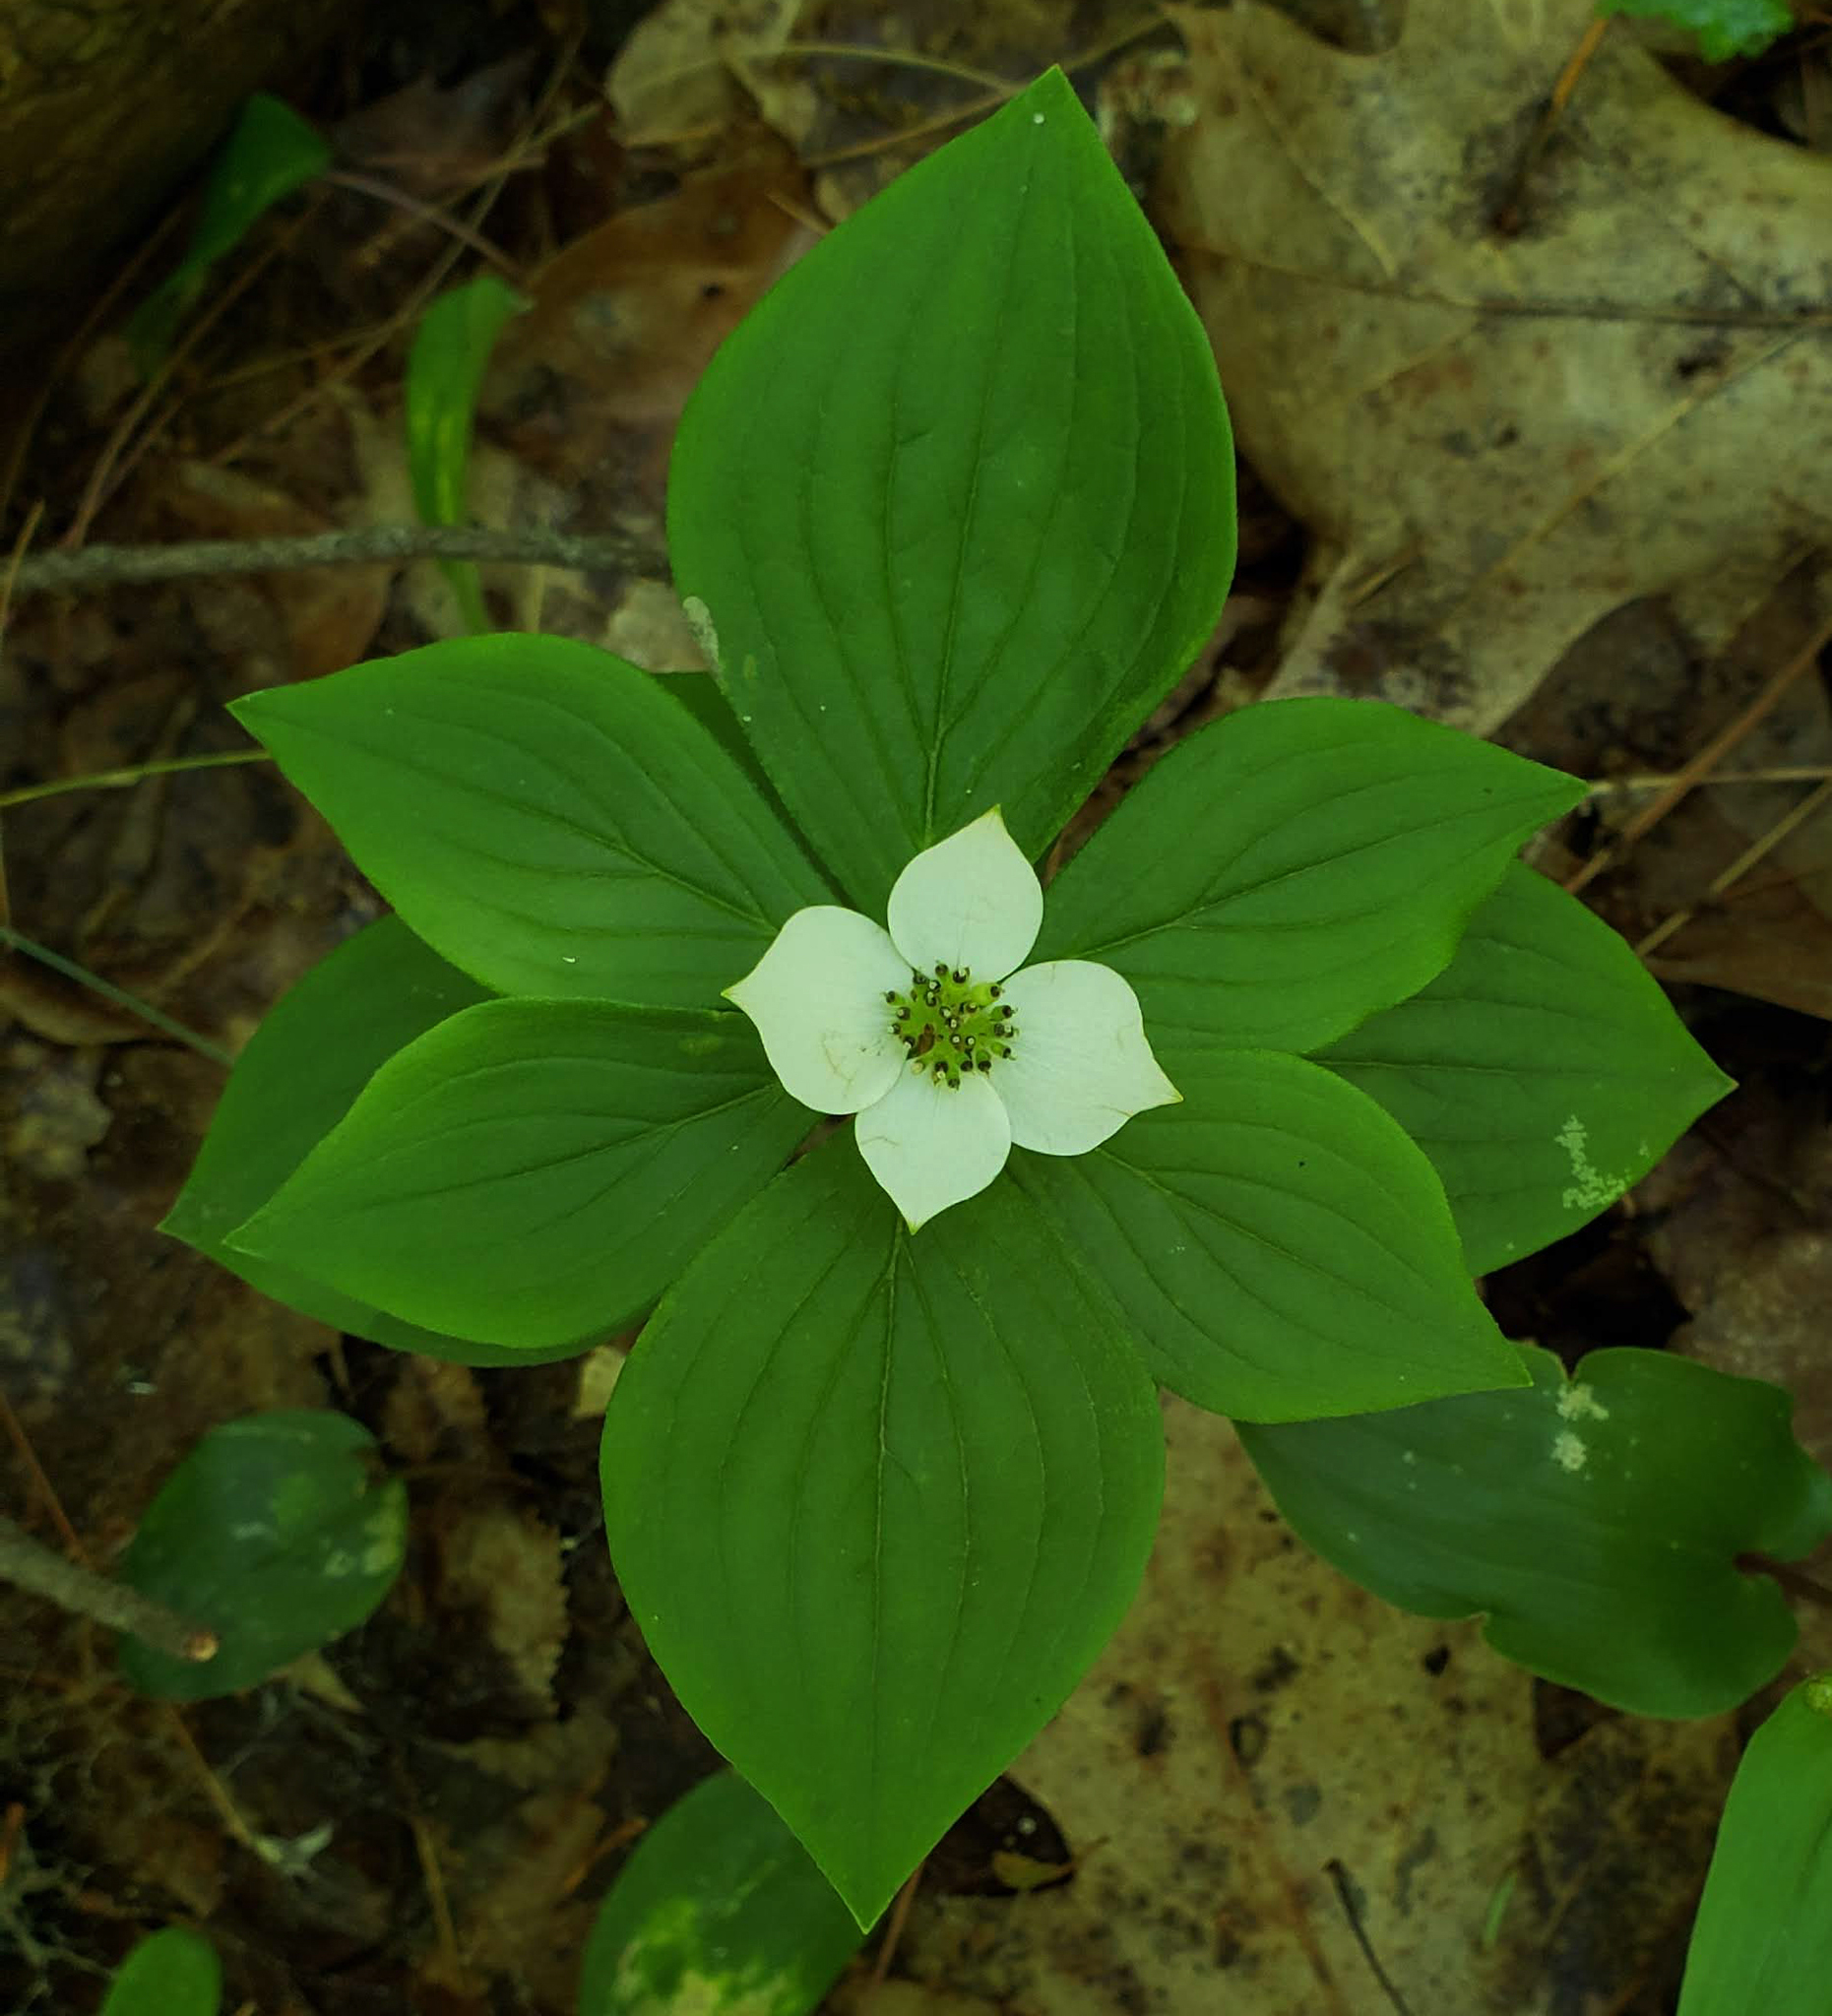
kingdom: Plantae
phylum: Tracheophyta
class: Magnoliopsida
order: Cornales
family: Cornaceae
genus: Cornus
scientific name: Cornus canadensis
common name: Creeping dogwood
